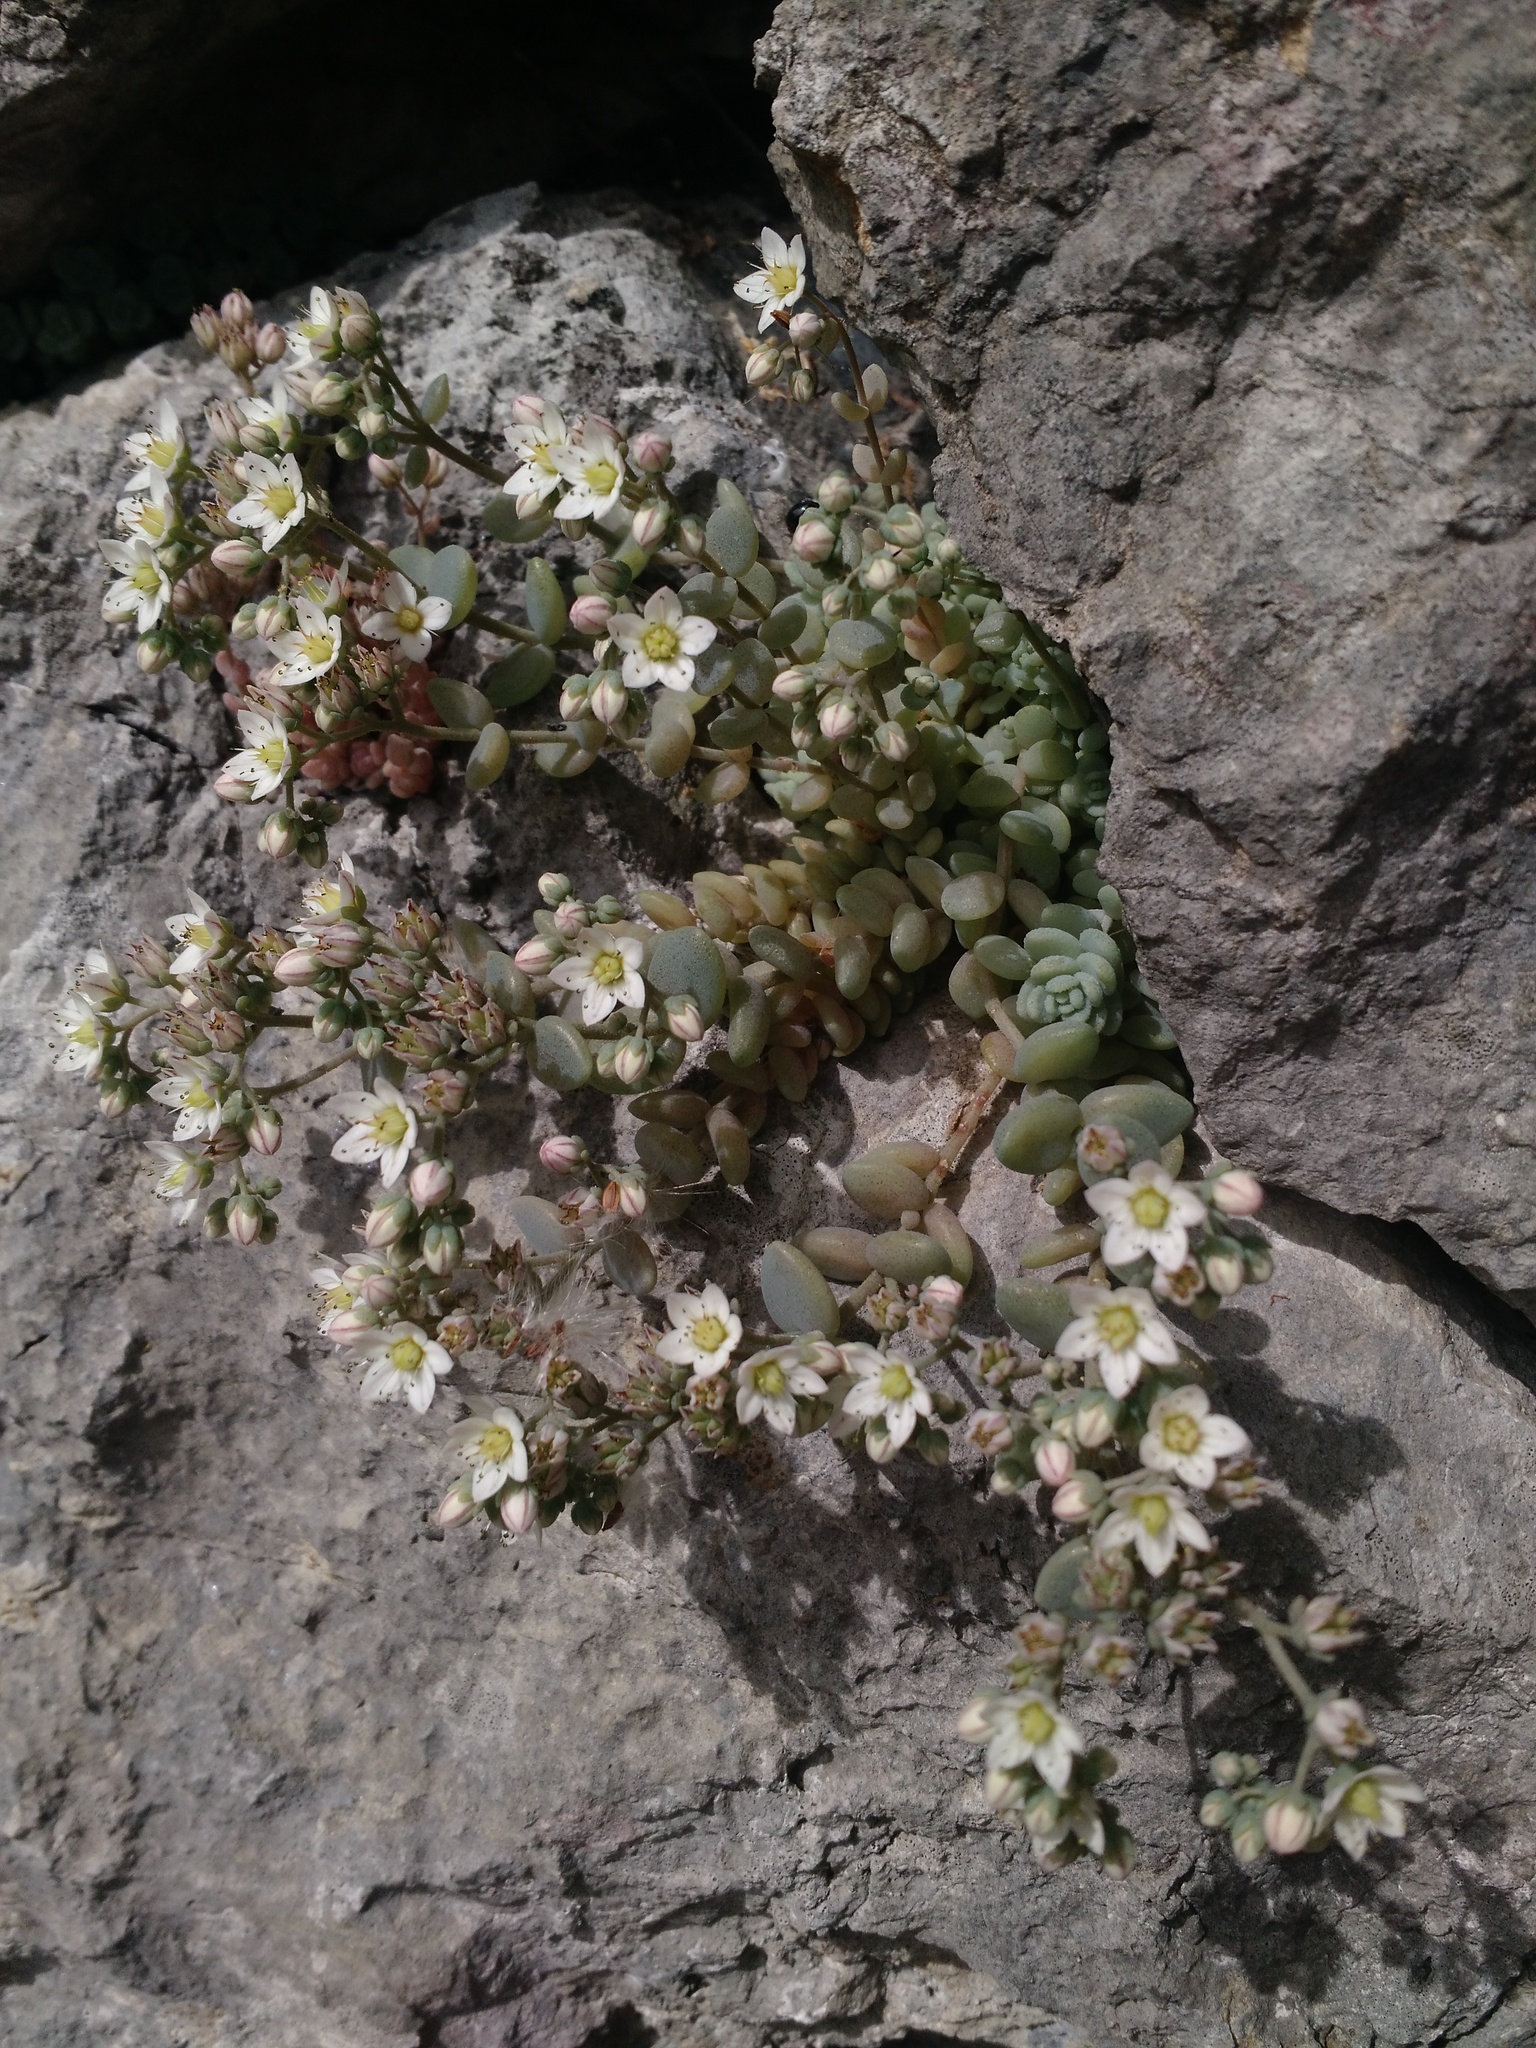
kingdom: Plantae
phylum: Tracheophyta
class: Magnoliopsida
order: Saxifragales
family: Crassulaceae
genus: Sedum
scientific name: Sedum dasyphyllum
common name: Thick-leaf stonecrop
